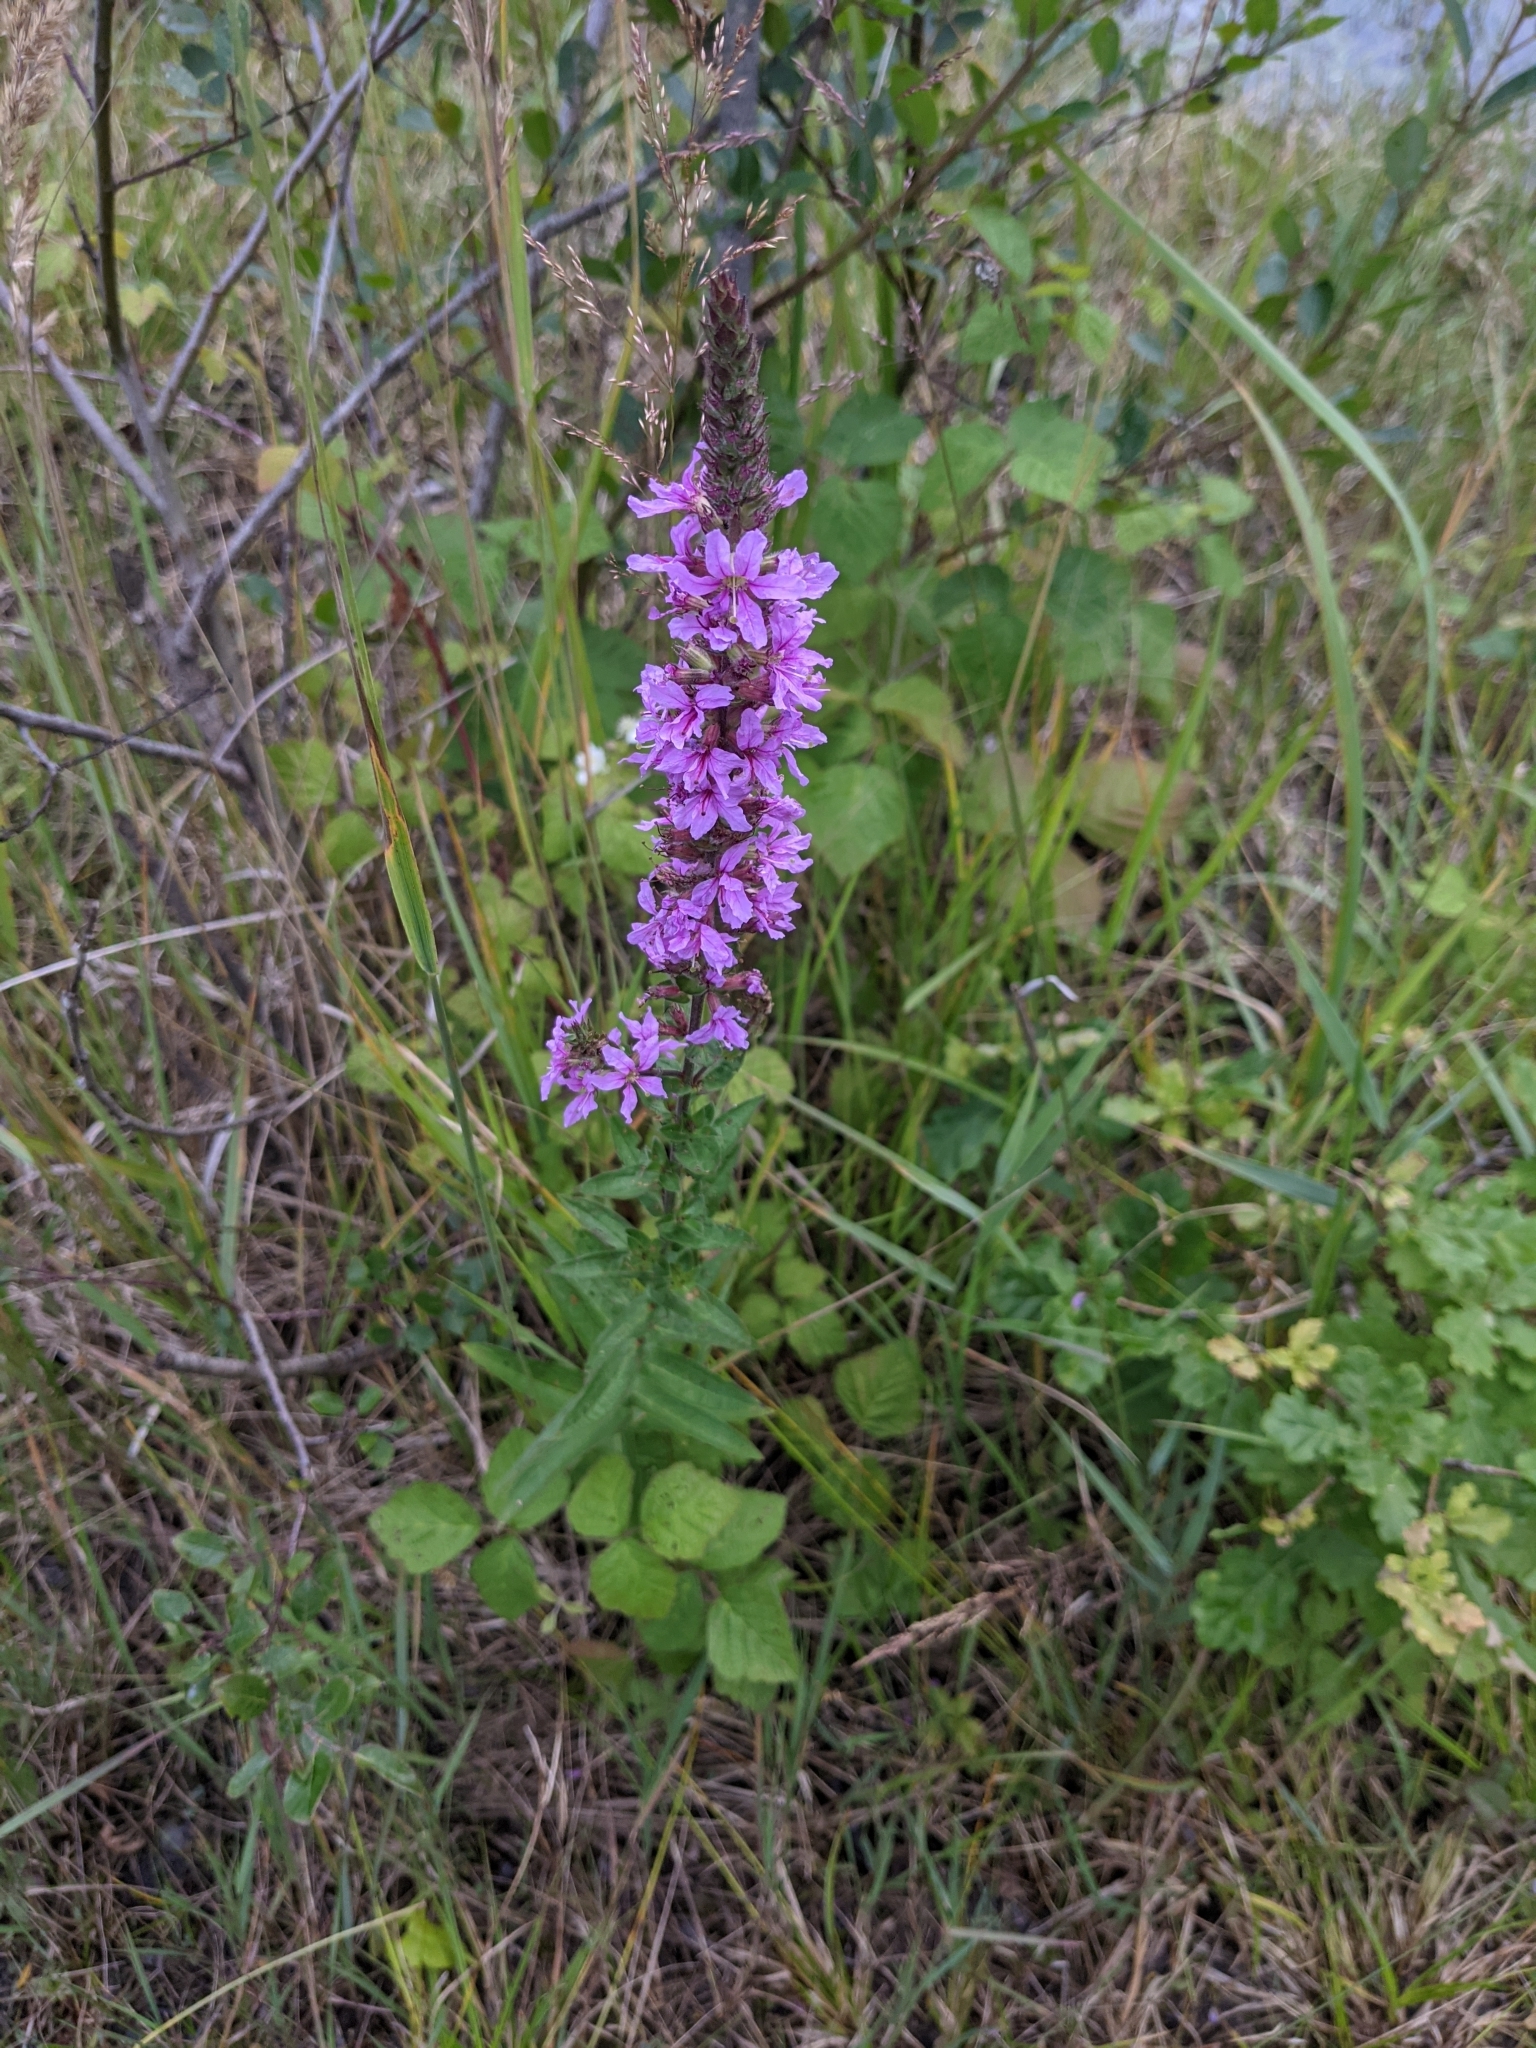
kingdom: Plantae
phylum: Tracheophyta
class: Magnoliopsida
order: Myrtales
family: Lythraceae
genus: Lythrum
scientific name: Lythrum salicaria
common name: Purple loosestrife
